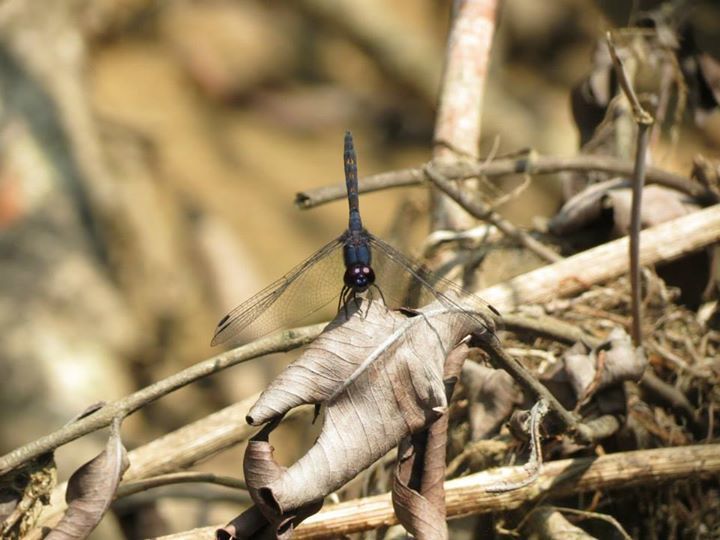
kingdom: Animalia
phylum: Arthropoda
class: Insecta
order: Odonata
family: Libellulidae
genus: Trithemis
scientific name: Trithemis festiva
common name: Indigo dropwing
